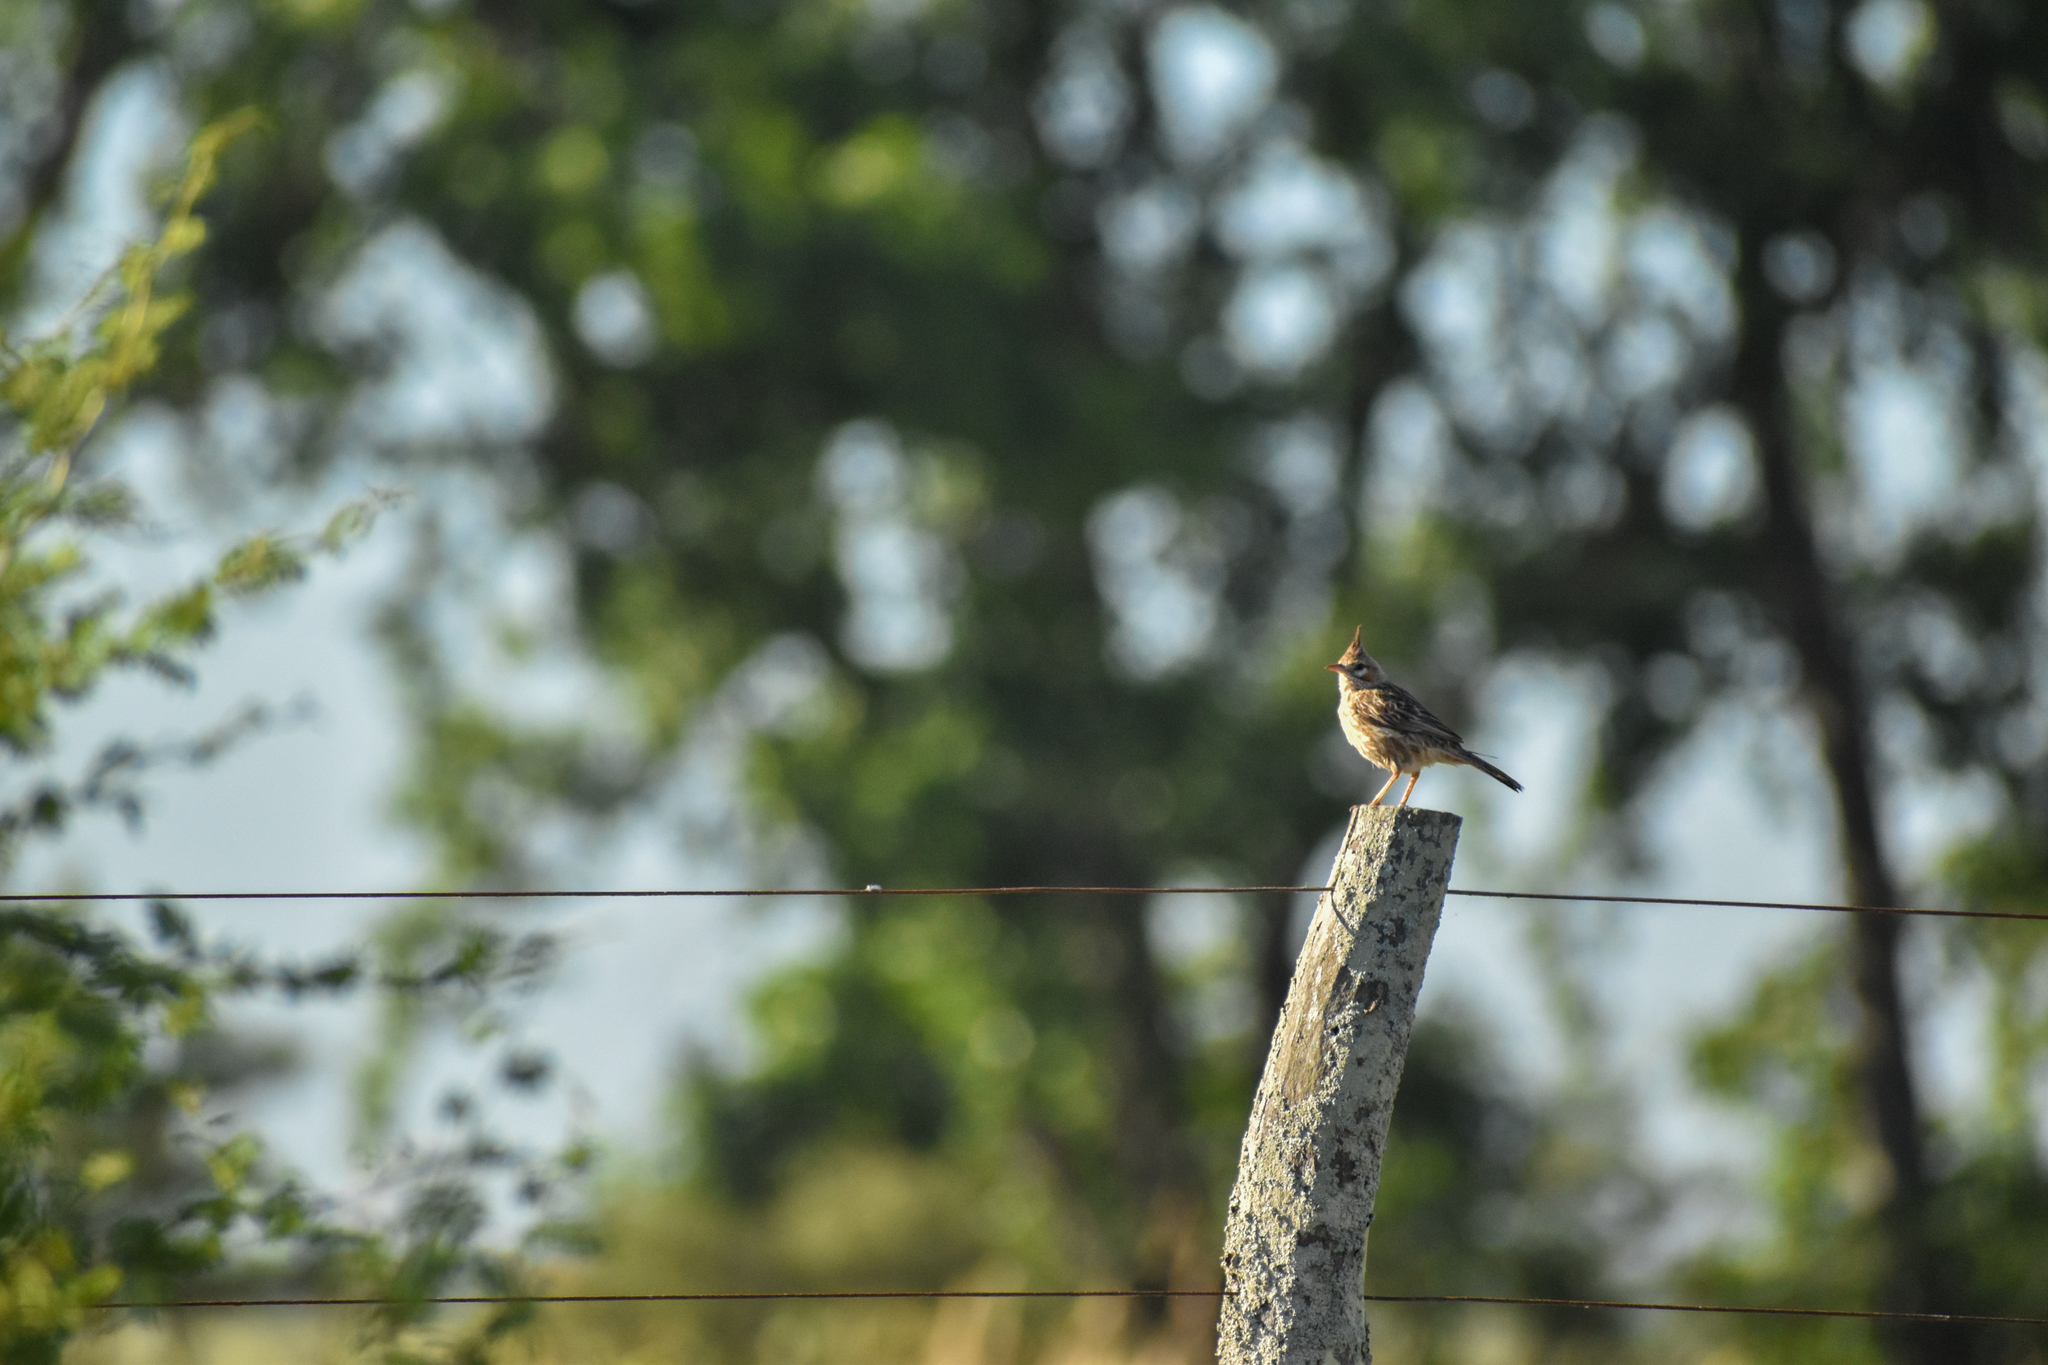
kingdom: Animalia
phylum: Chordata
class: Aves
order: Passeriformes
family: Furnariidae
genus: Coryphistera
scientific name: Coryphistera alaudina
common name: Lark-like brushrunner
